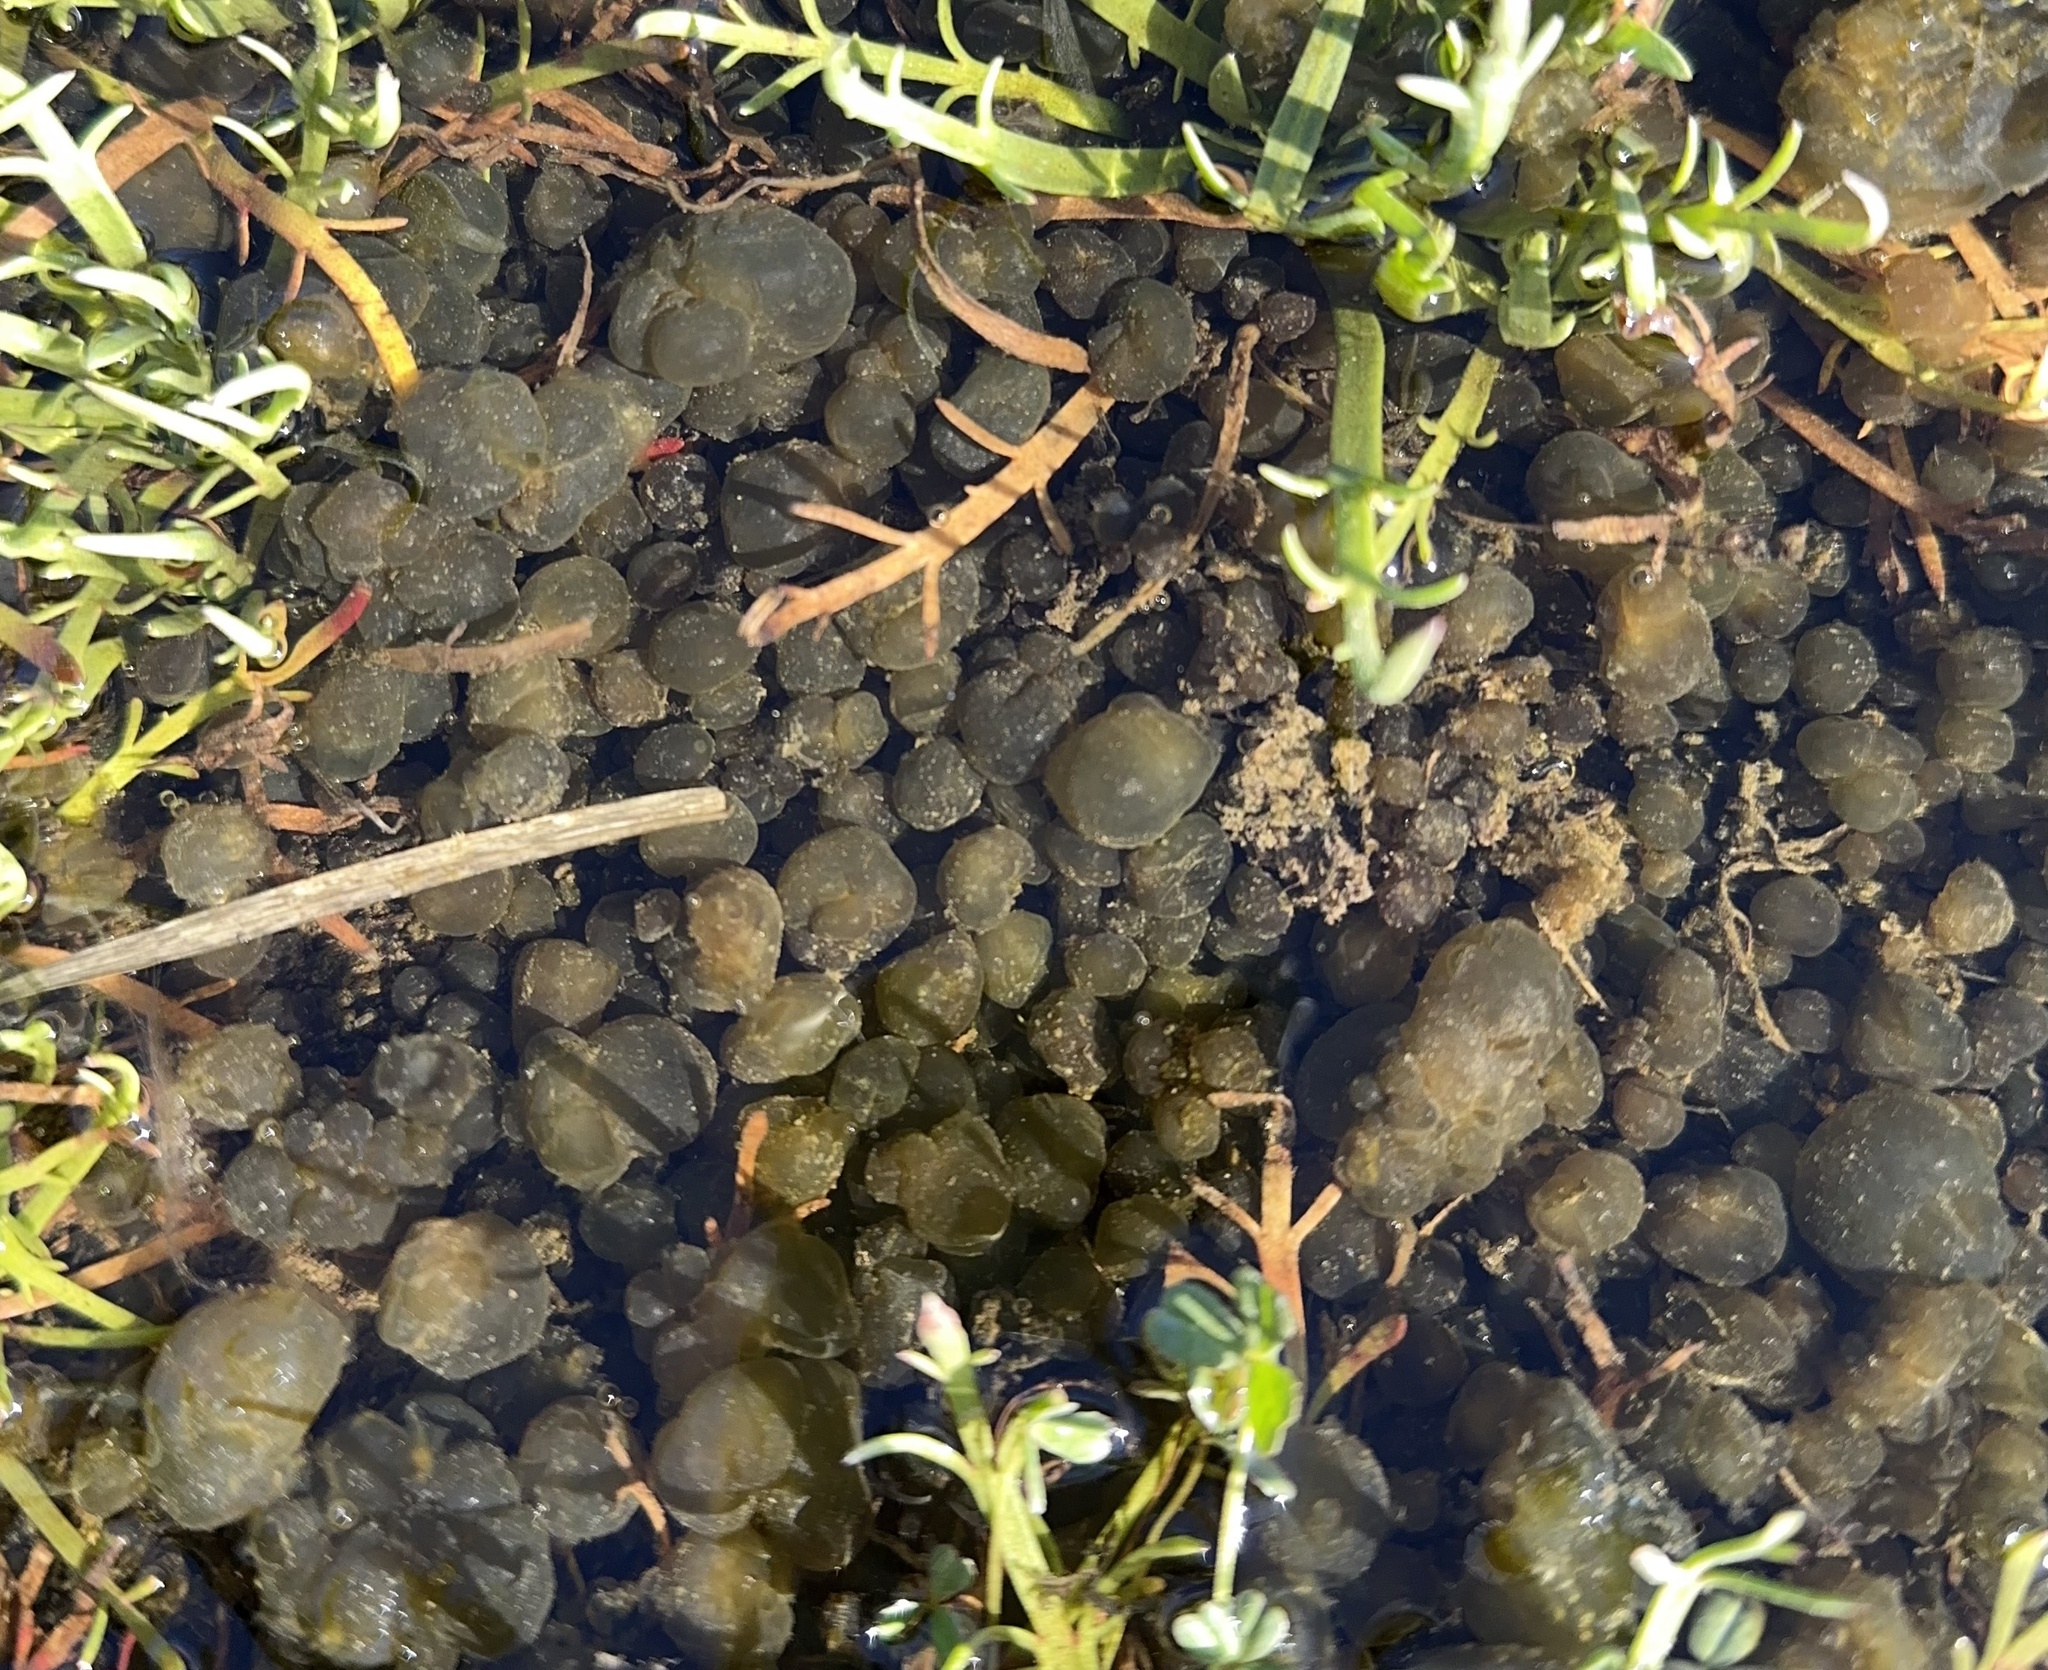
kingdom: Bacteria
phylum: Cyanobacteria
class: Cyanobacteriia
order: Cyanobacteriales
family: Nostocaceae
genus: Nostoc
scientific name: Nostoc pruniforme
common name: Mare's eggs
